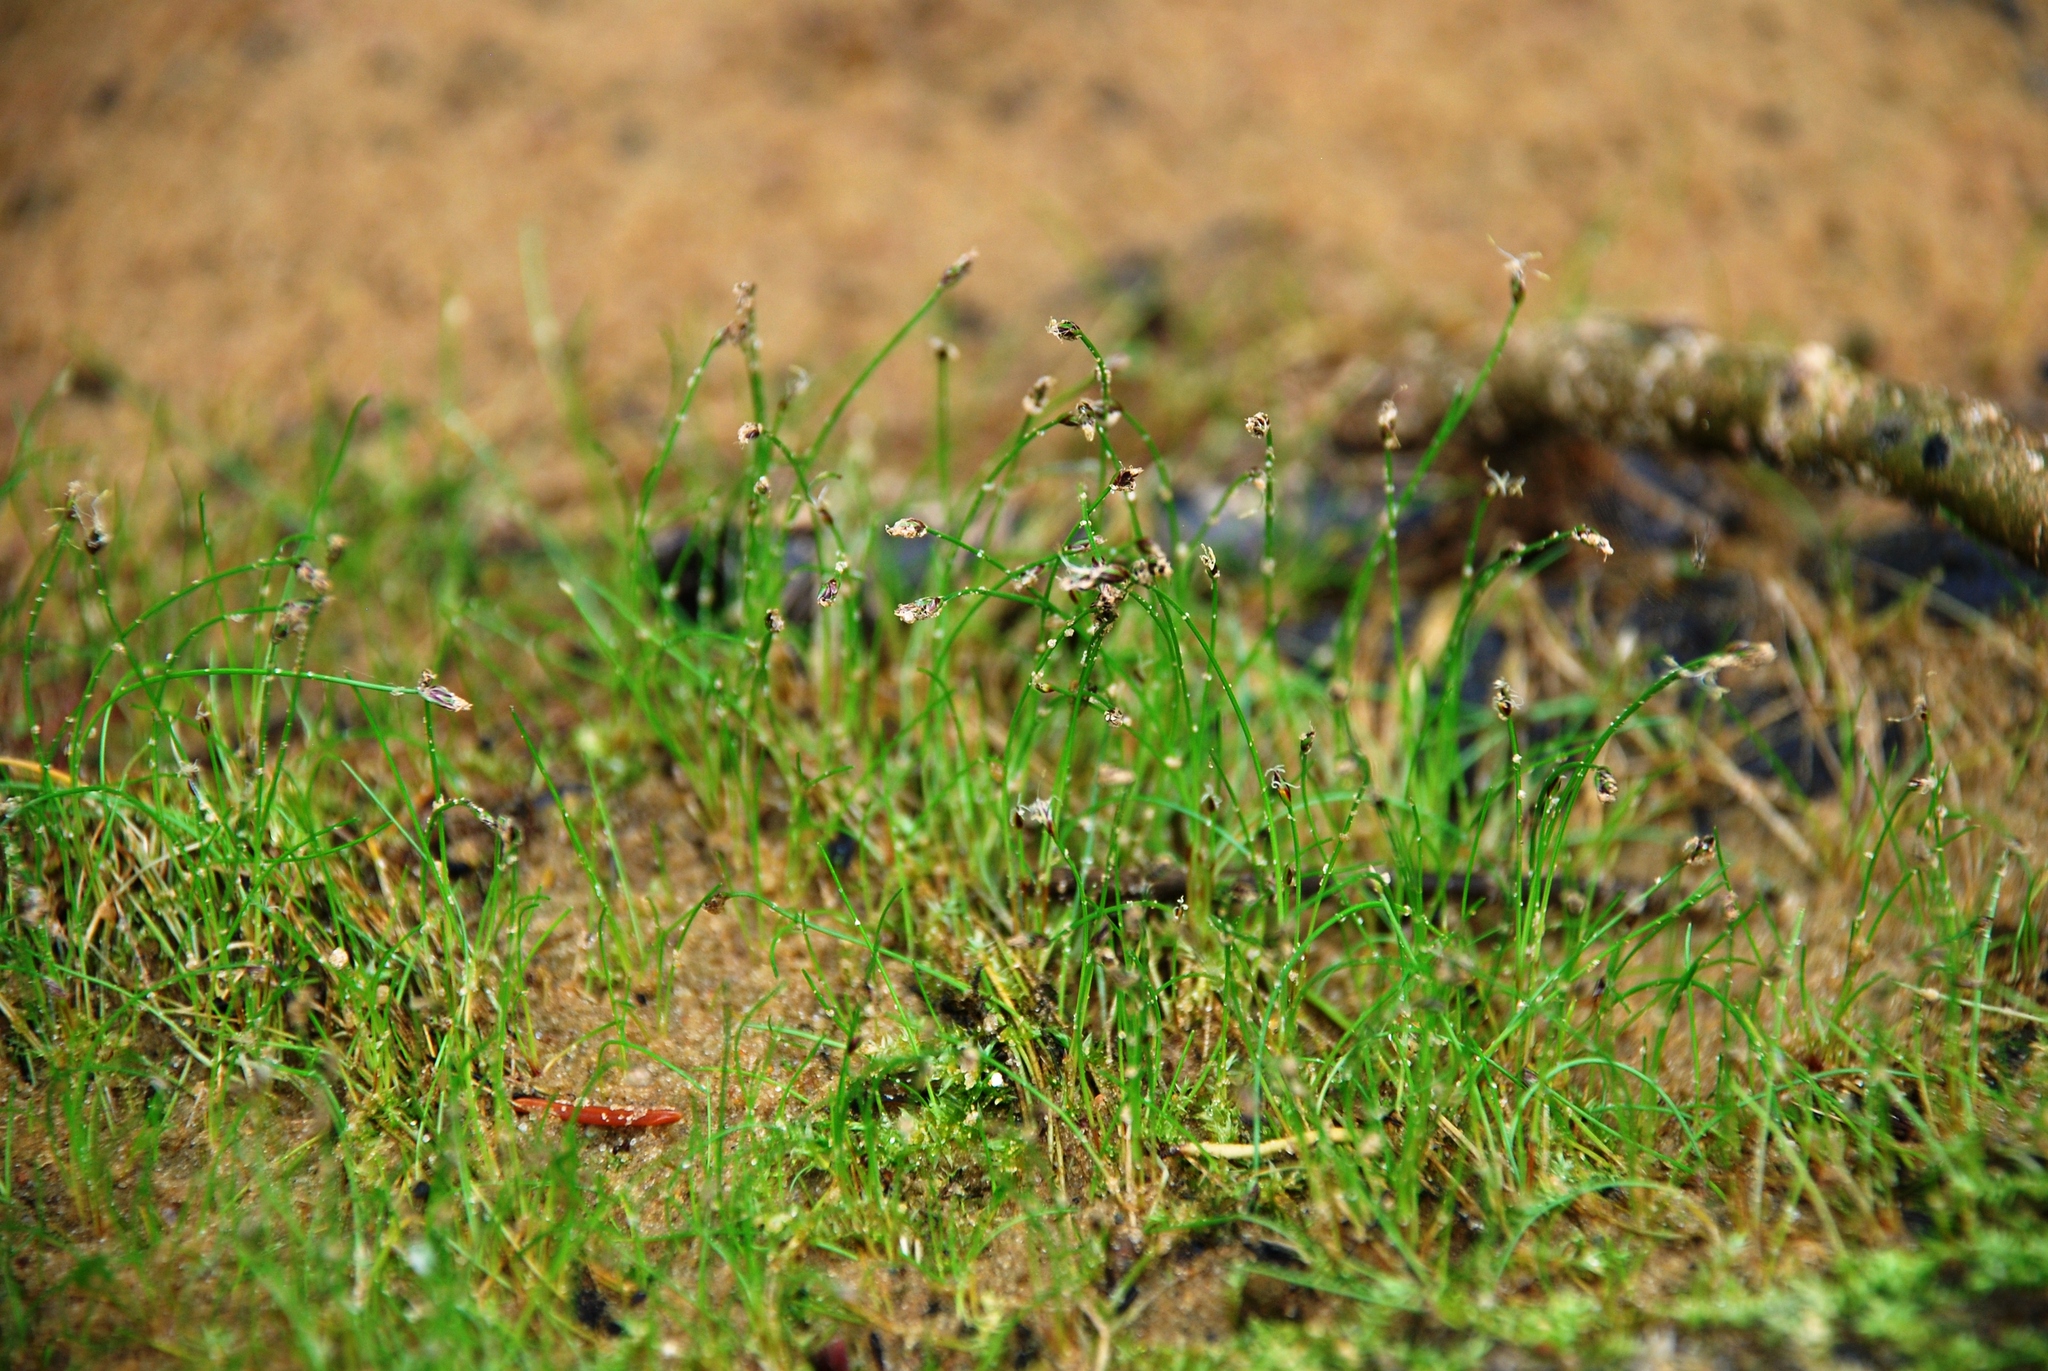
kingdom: Plantae
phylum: Tracheophyta
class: Liliopsida
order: Poales
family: Cyperaceae
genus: Eleocharis
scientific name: Eleocharis acicularis
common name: Needle spike-rush
